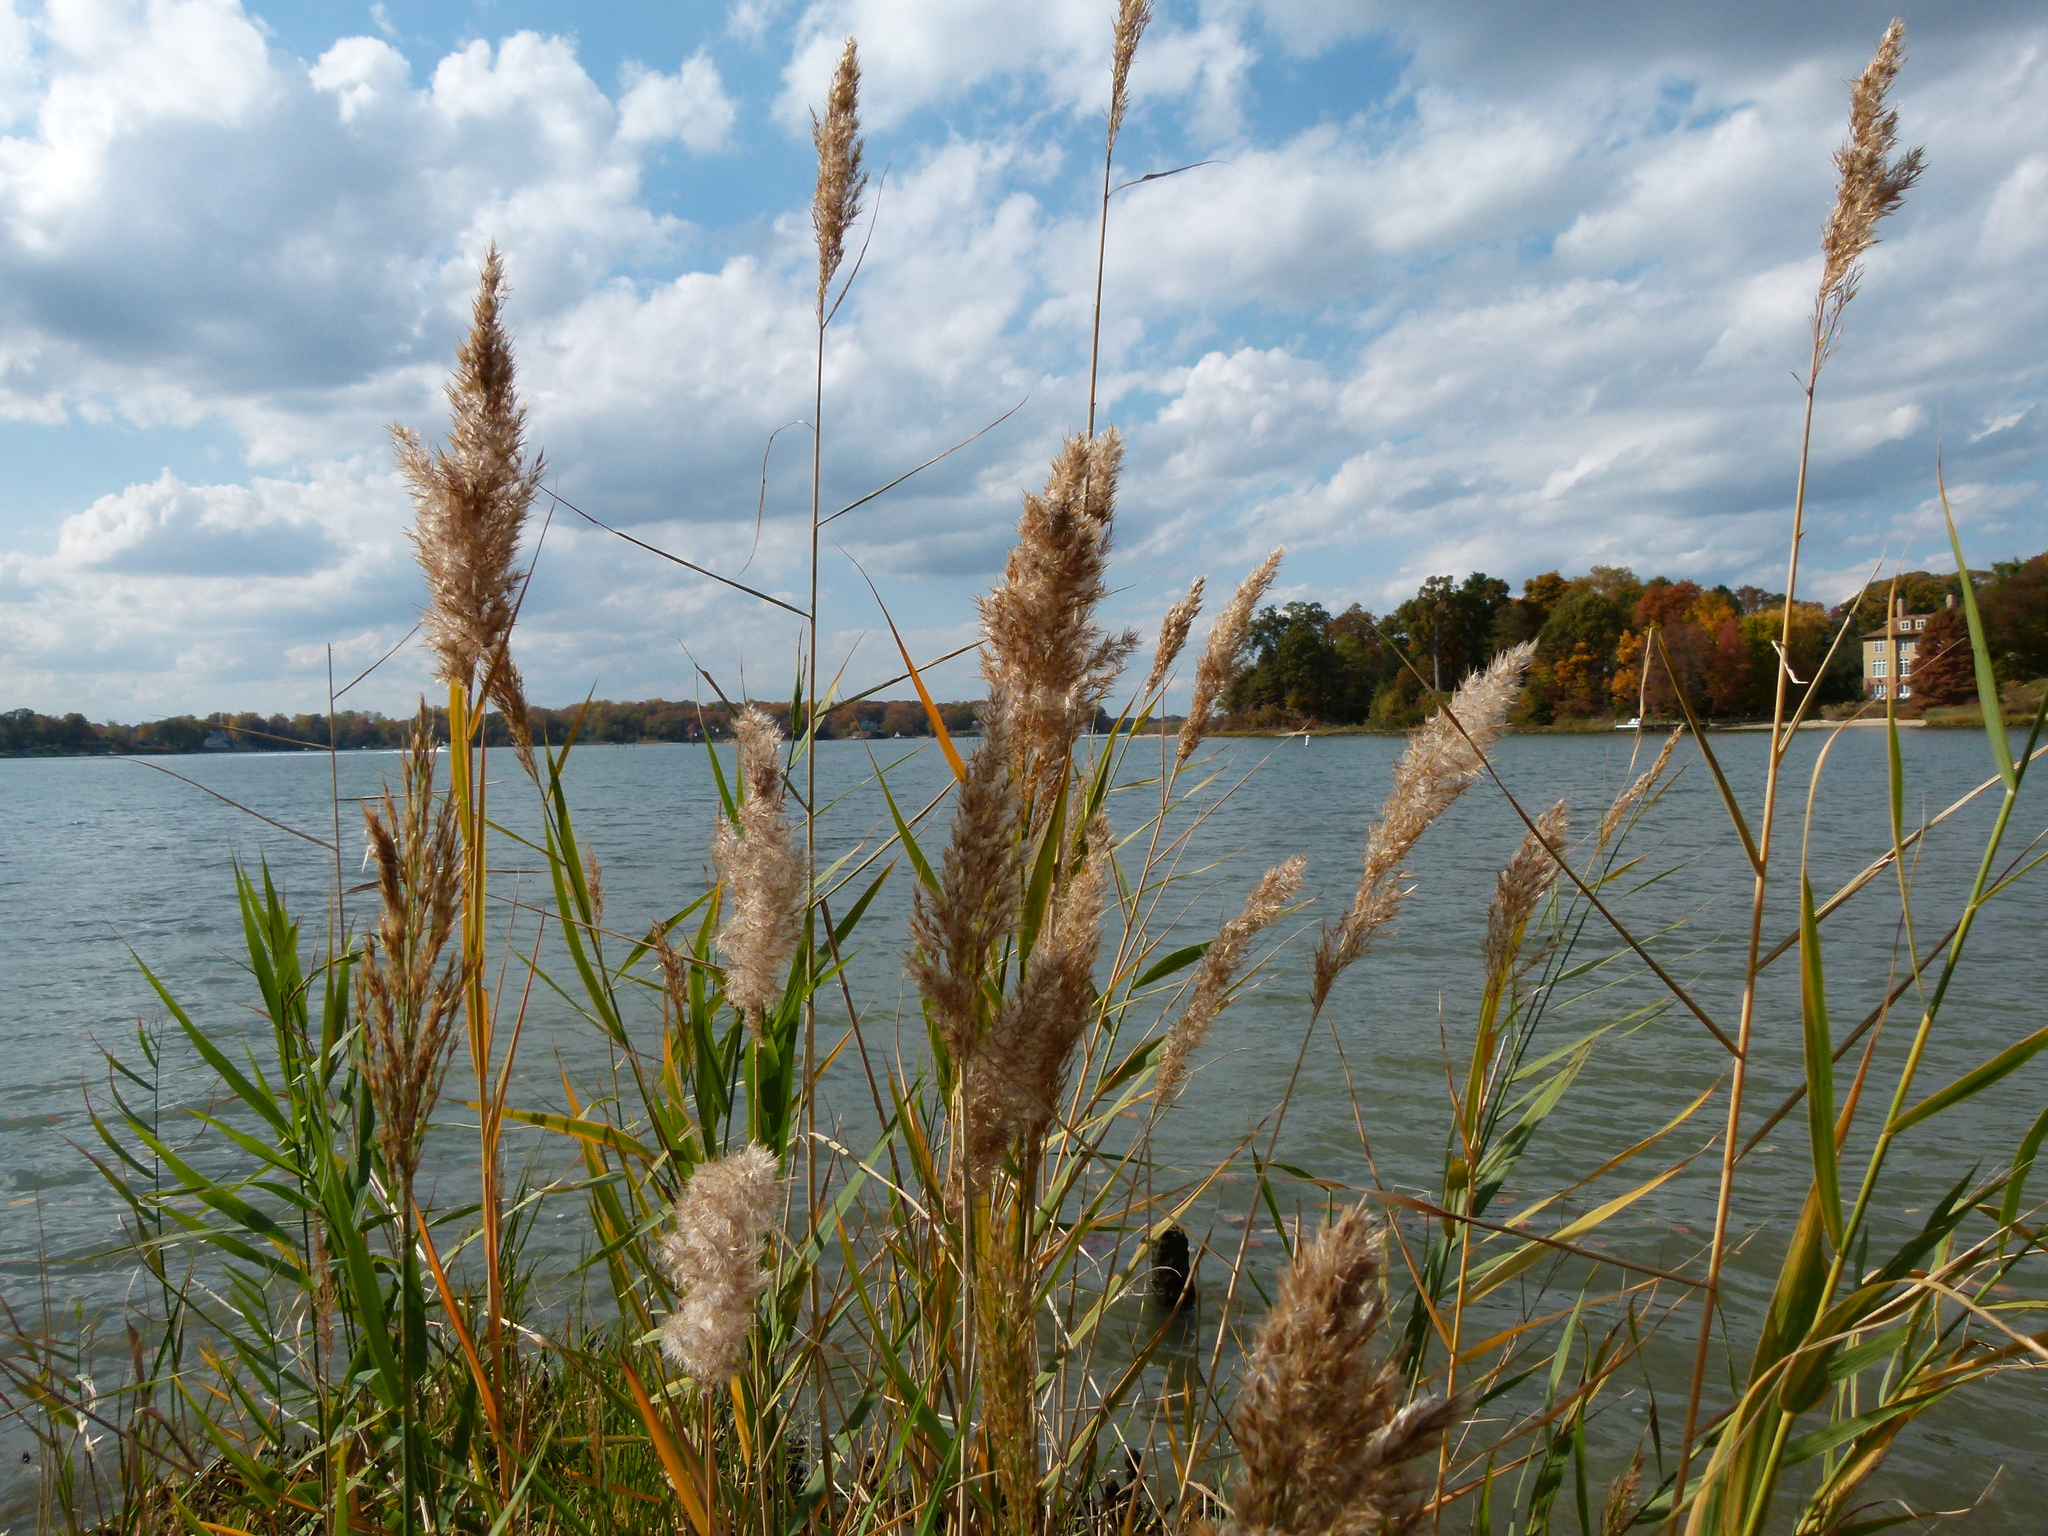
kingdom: Plantae
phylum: Tracheophyta
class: Liliopsida
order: Poales
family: Poaceae
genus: Phragmites
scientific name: Phragmites australis
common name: Common reed
